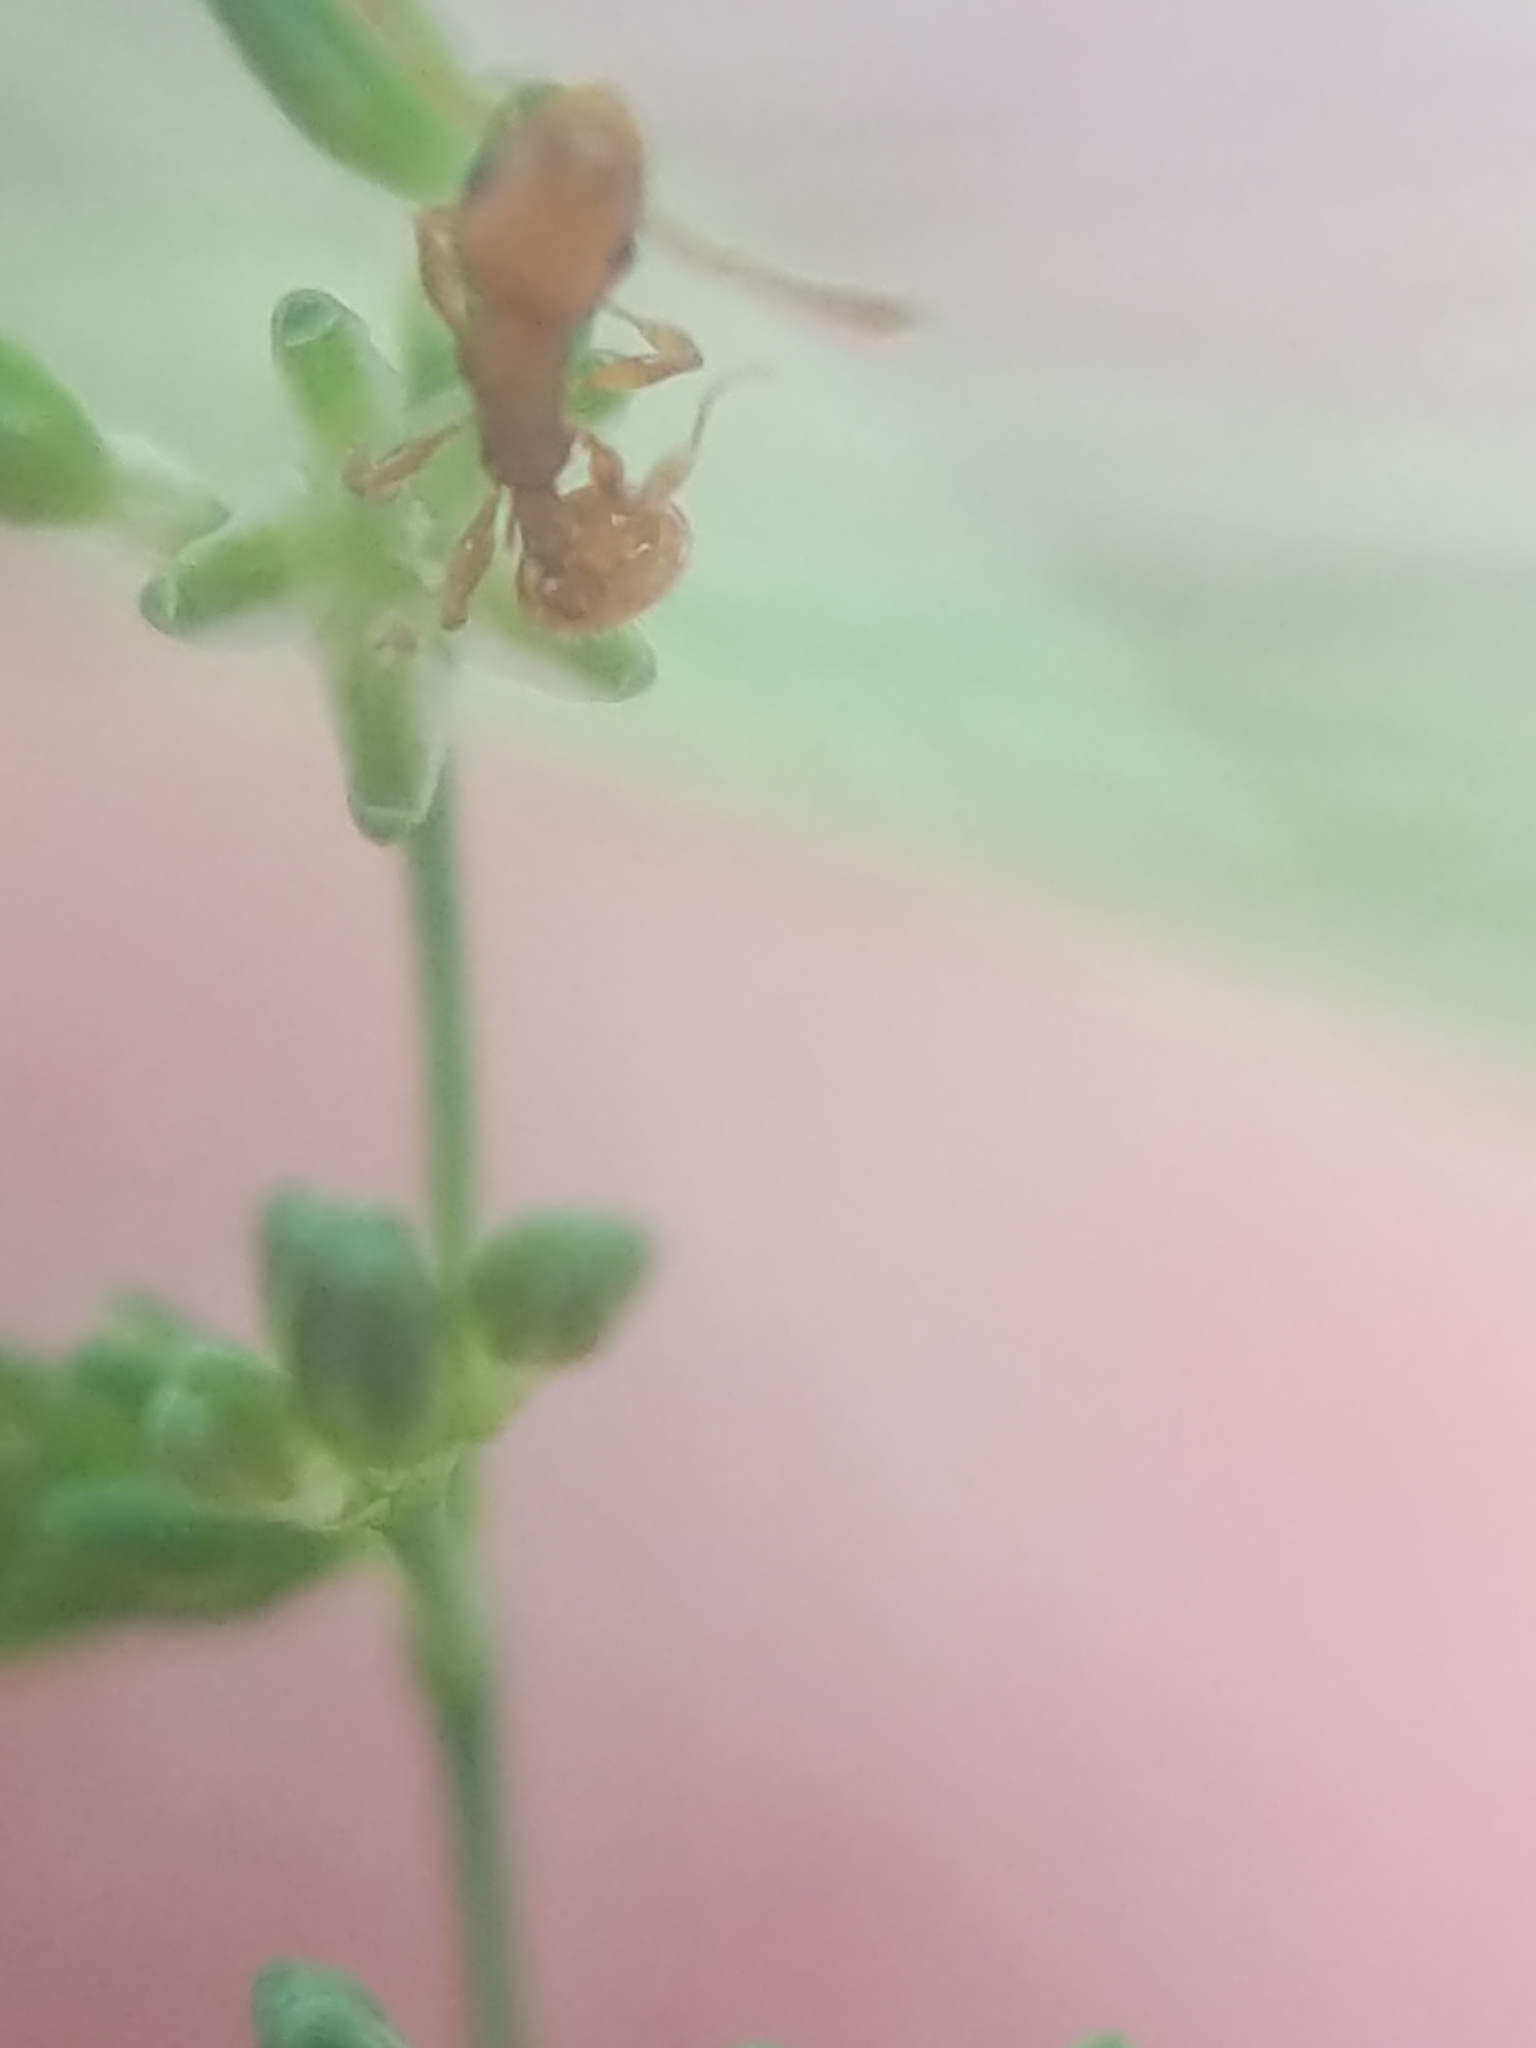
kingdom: Animalia
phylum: Arthropoda
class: Insecta
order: Hymenoptera
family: Formicidae
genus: Temnothorax
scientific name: Temnothorax curvispinosus
